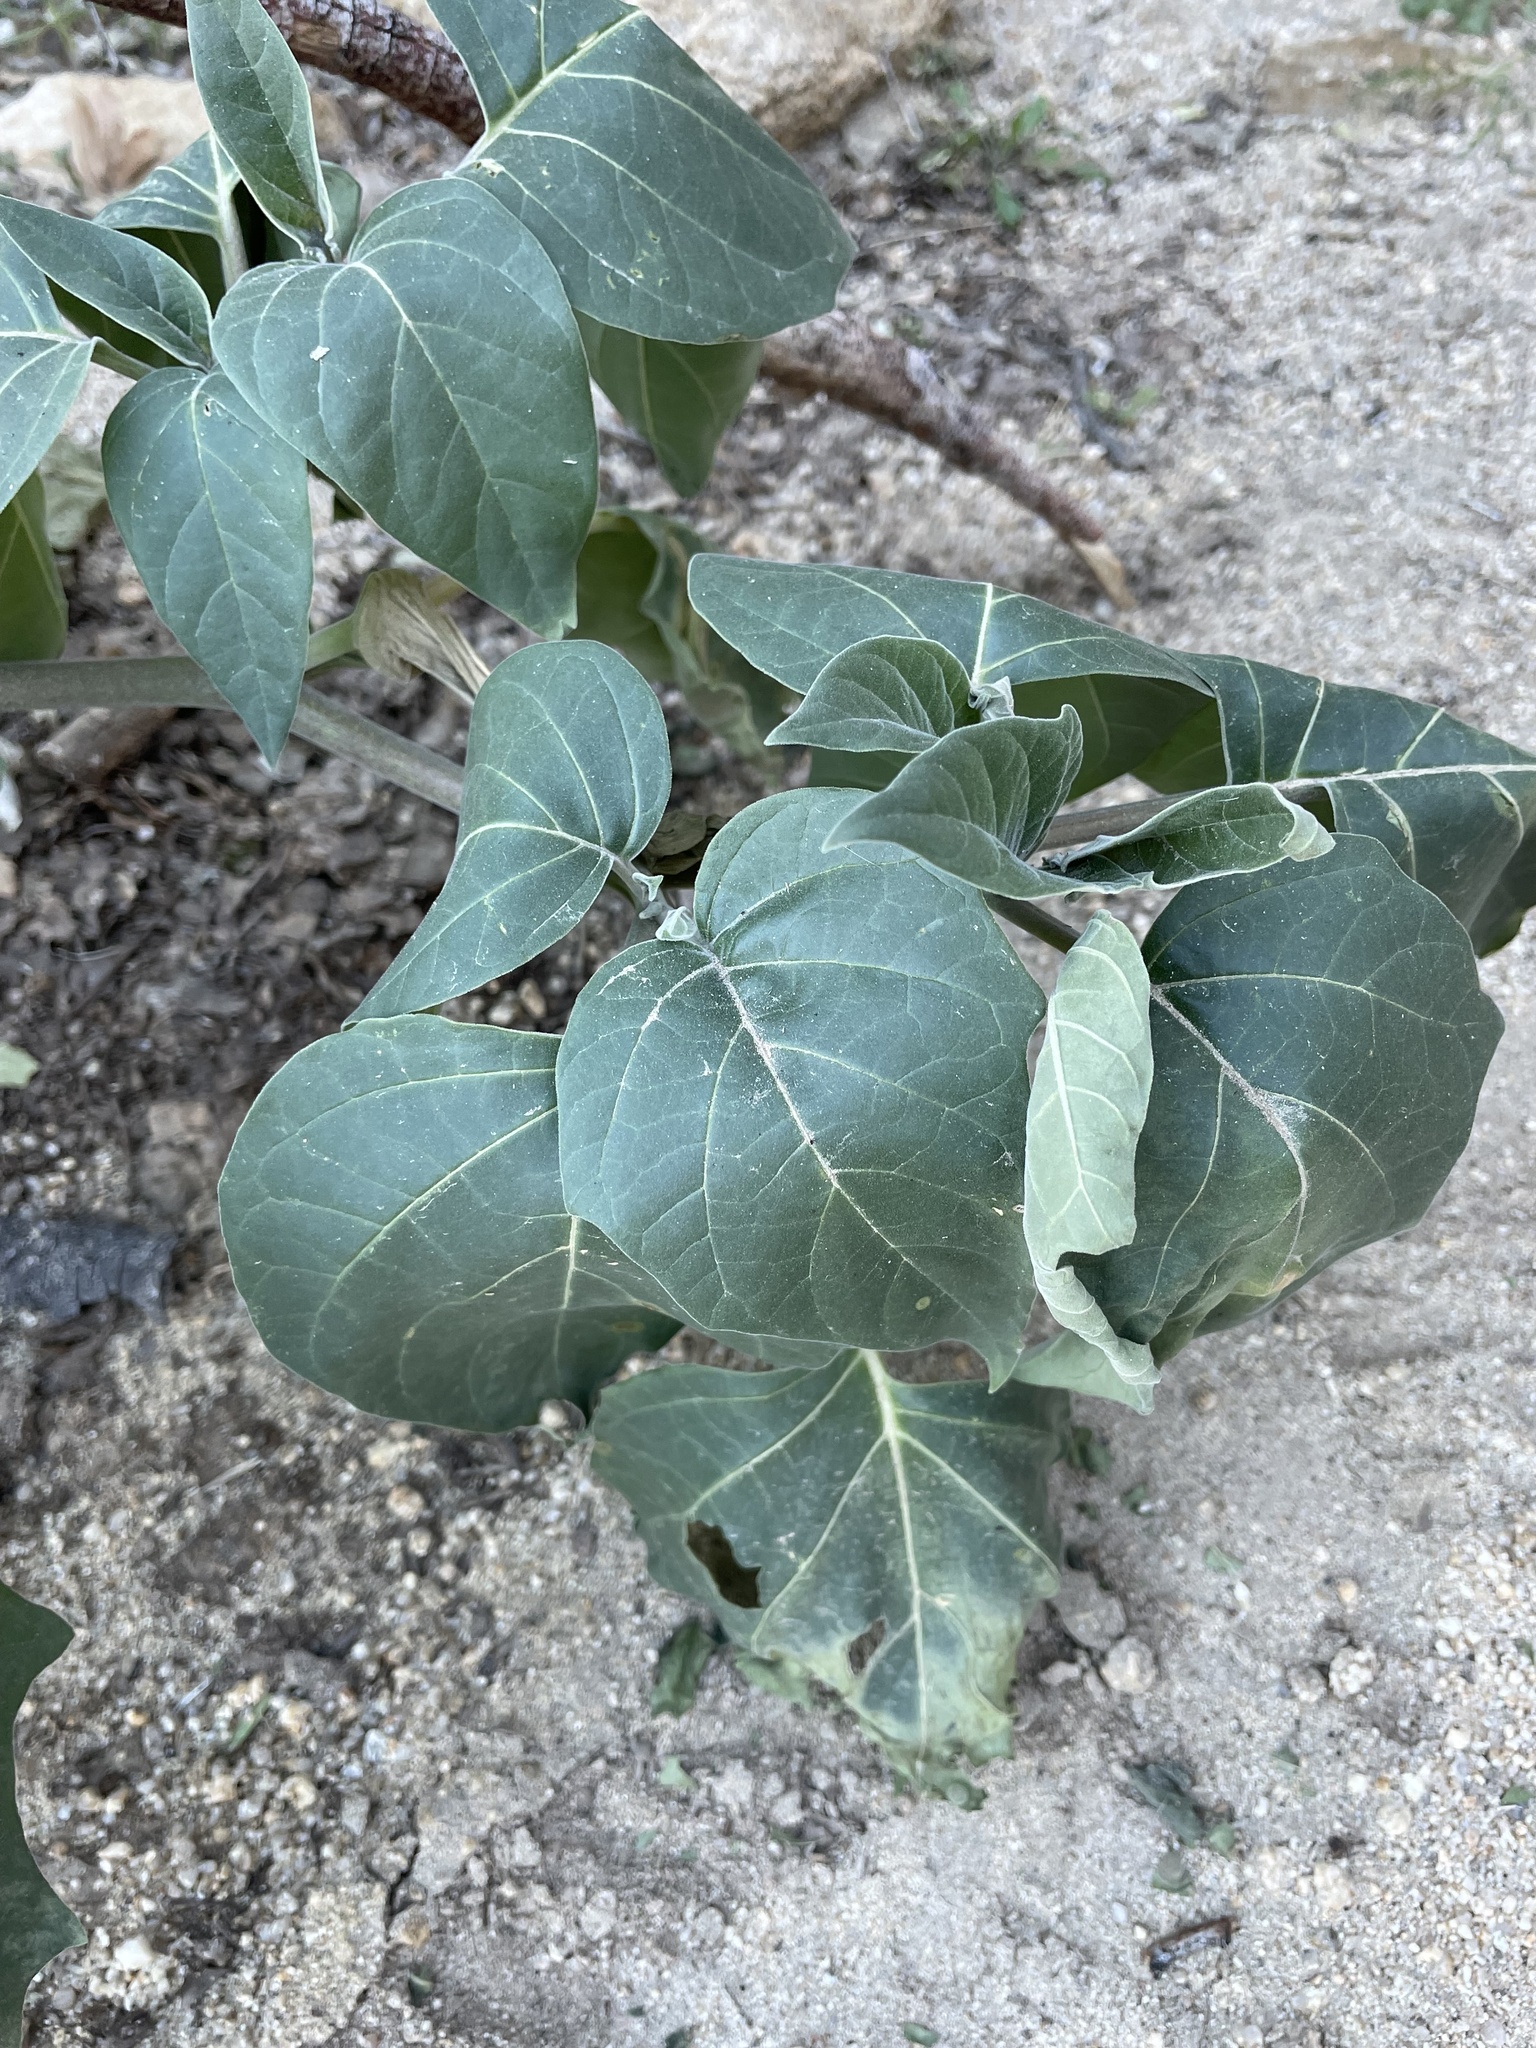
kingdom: Plantae
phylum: Tracheophyta
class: Magnoliopsida
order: Solanales
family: Solanaceae
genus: Datura
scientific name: Datura wrightii
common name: Sacred thorn-apple
